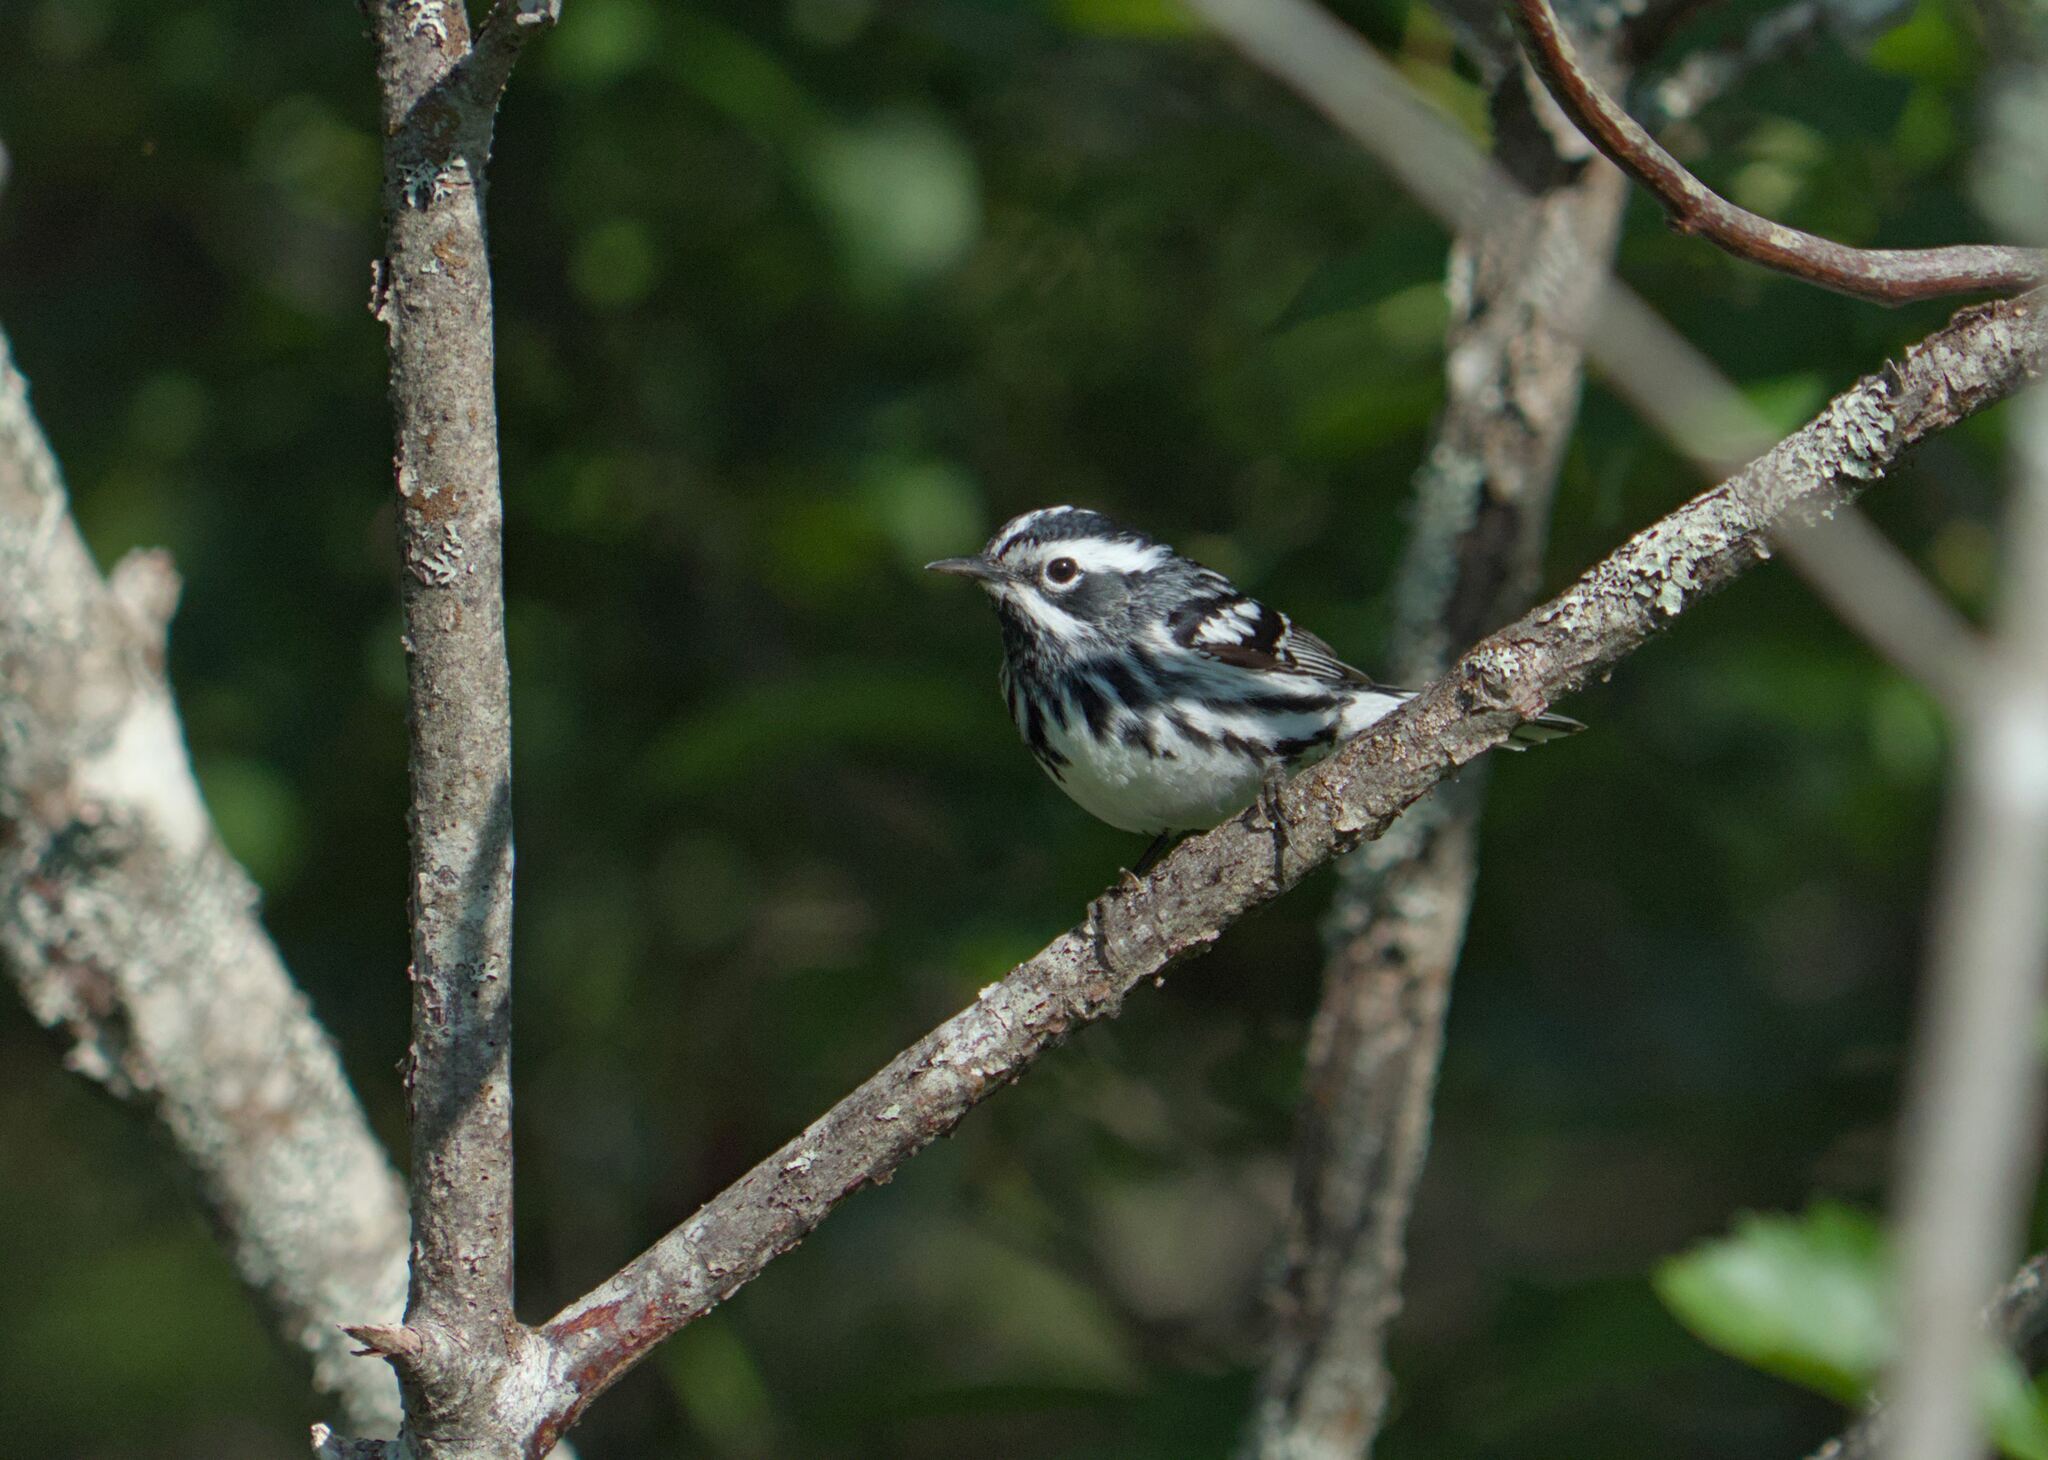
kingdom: Animalia
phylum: Chordata
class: Aves
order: Passeriformes
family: Parulidae
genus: Mniotilta
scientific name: Mniotilta varia
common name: Black-and-white warbler
